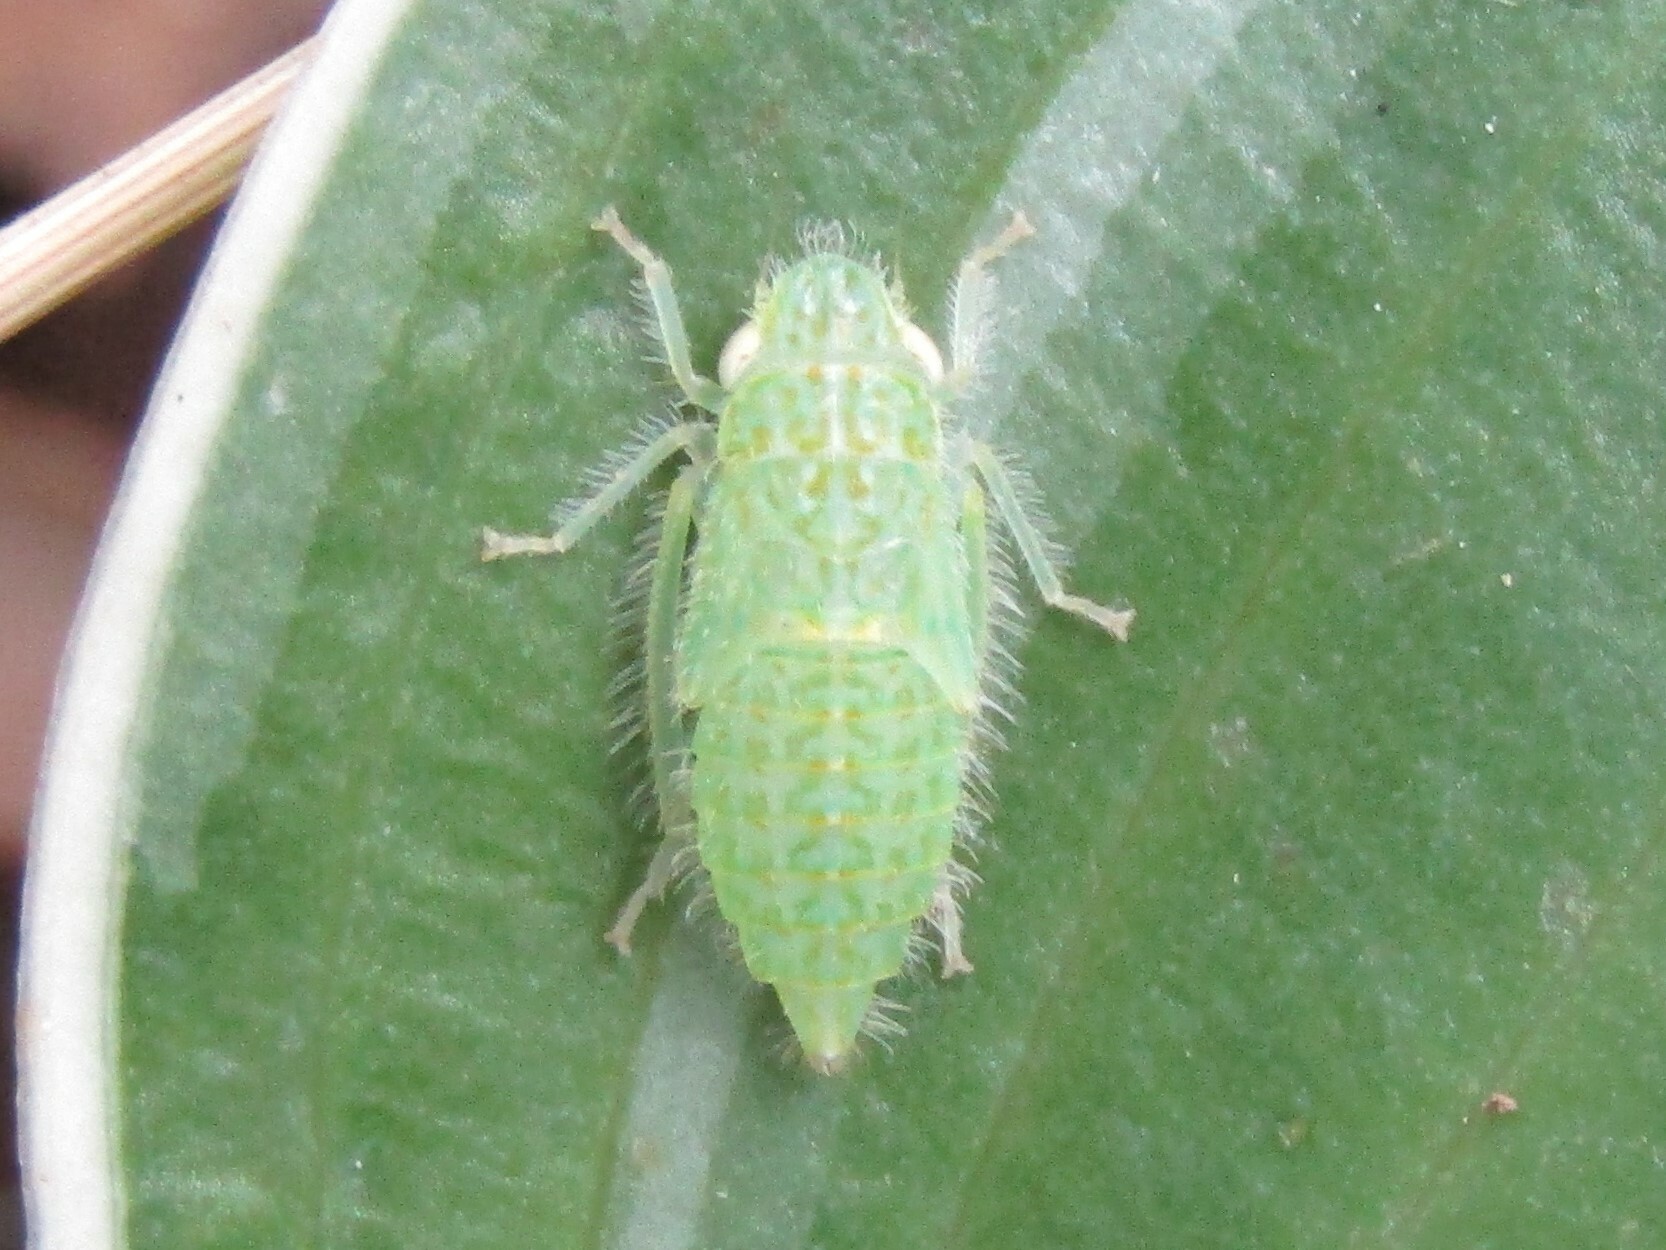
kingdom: Animalia
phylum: Arthropoda
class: Insecta
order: Hemiptera
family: Cicadellidae
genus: Rugosana
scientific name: Rugosana querci
